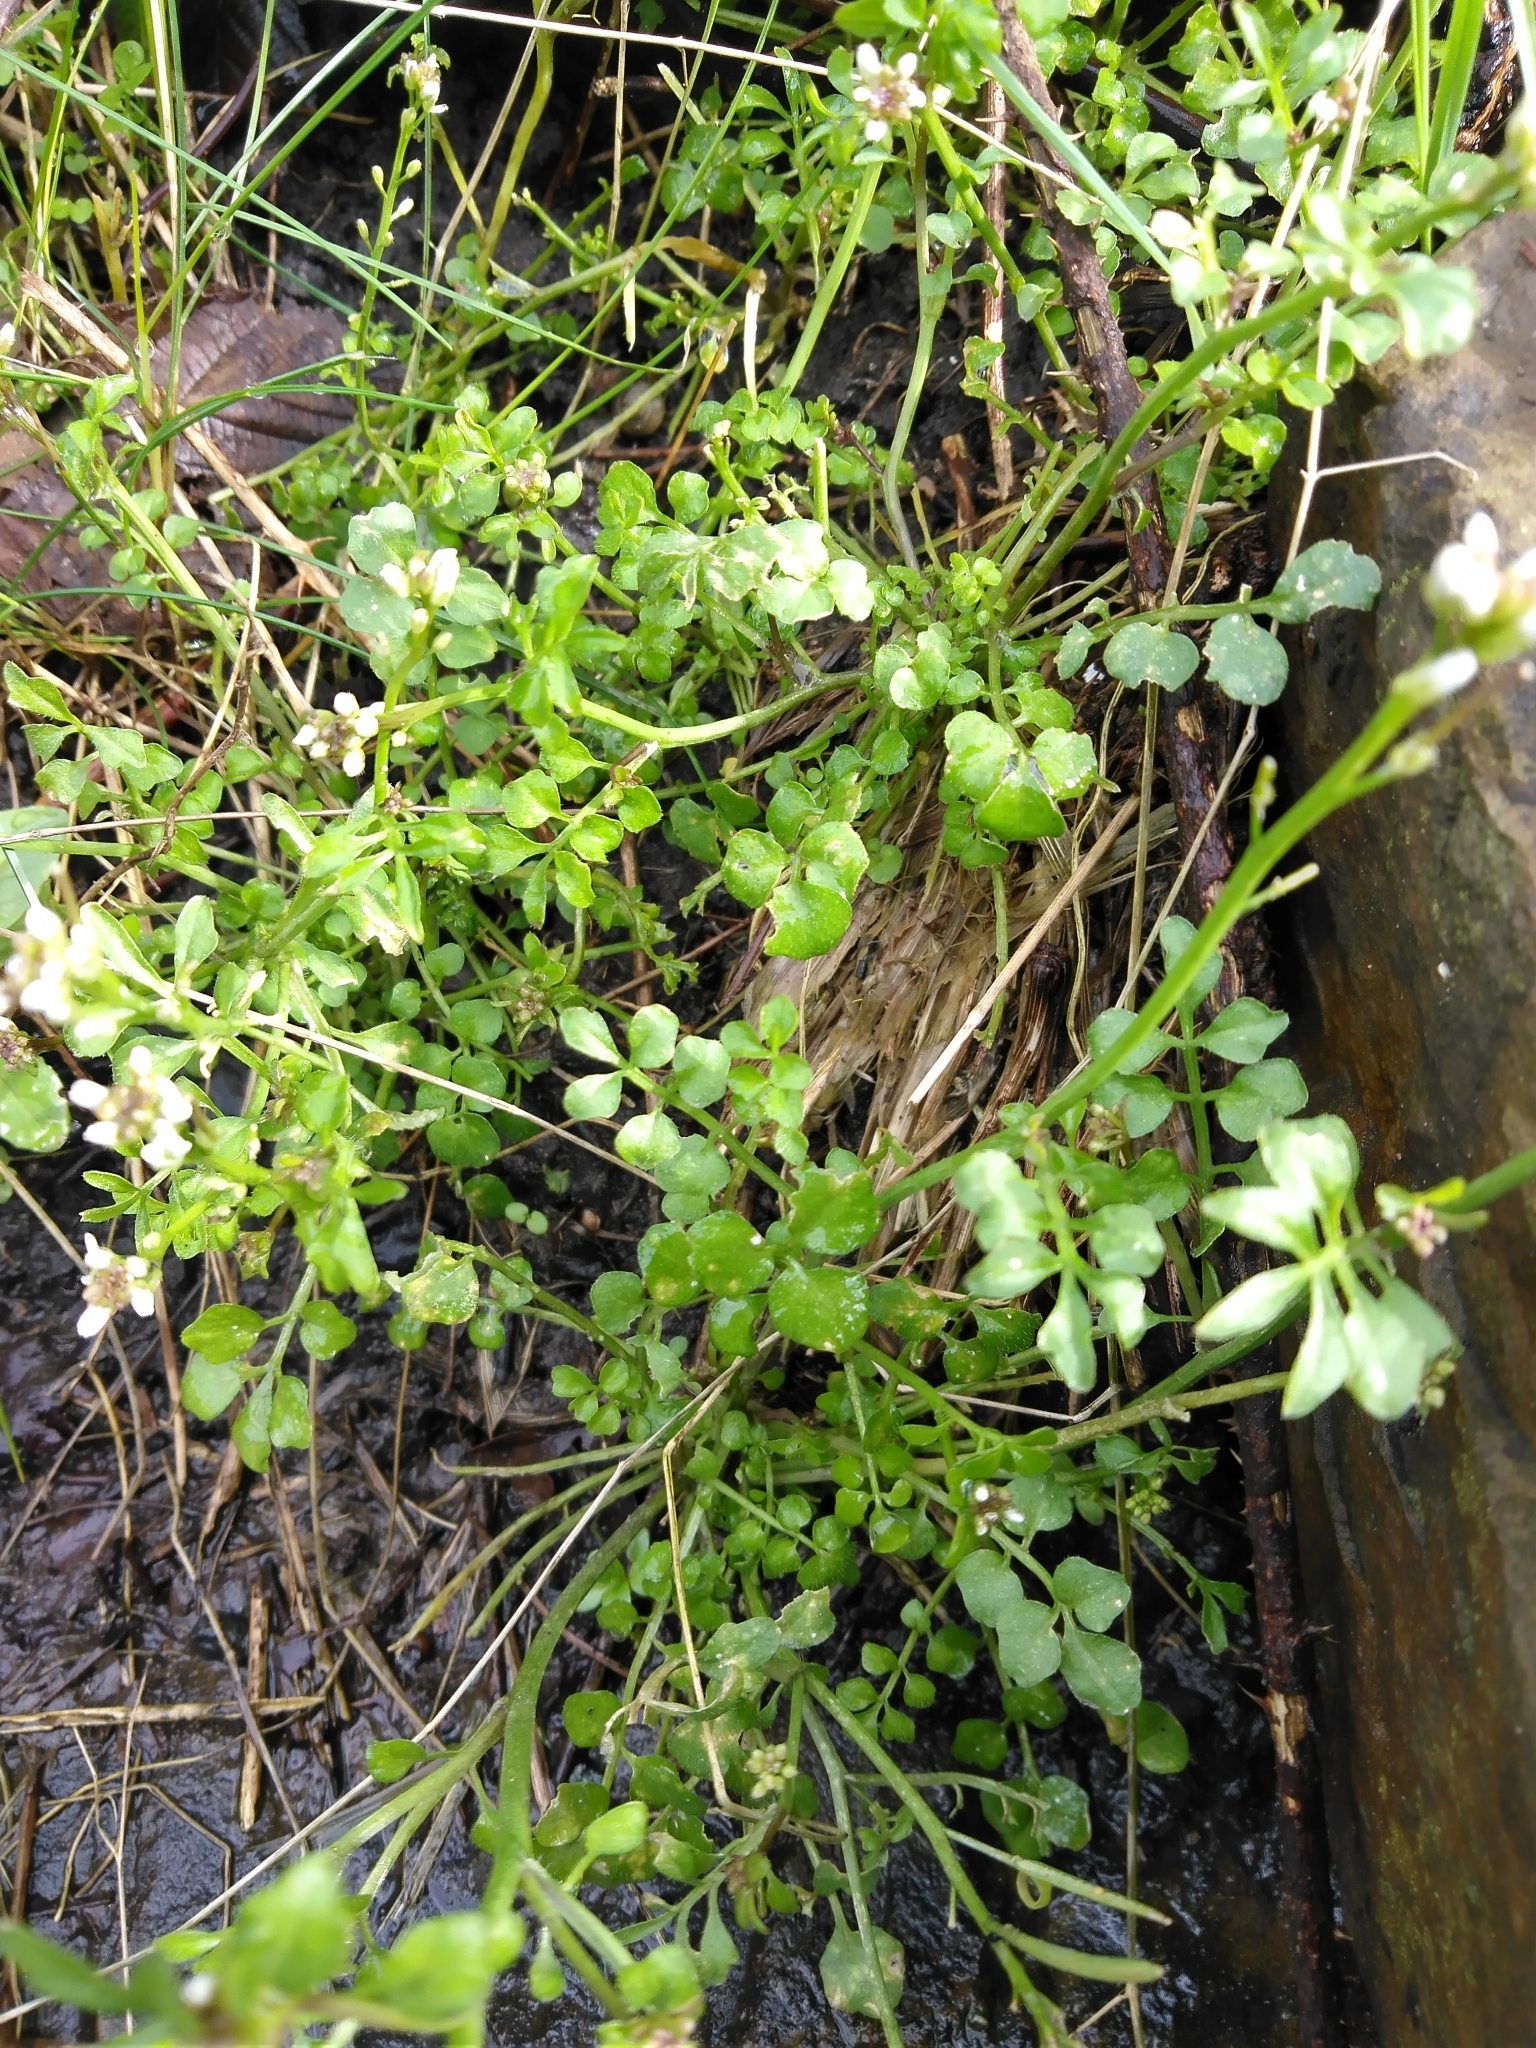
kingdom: Plantae
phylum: Tracheophyta
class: Magnoliopsida
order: Brassicales
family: Brassicaceae
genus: Cardamine
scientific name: Cardamine hirsuta
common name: Hairy bittercress
